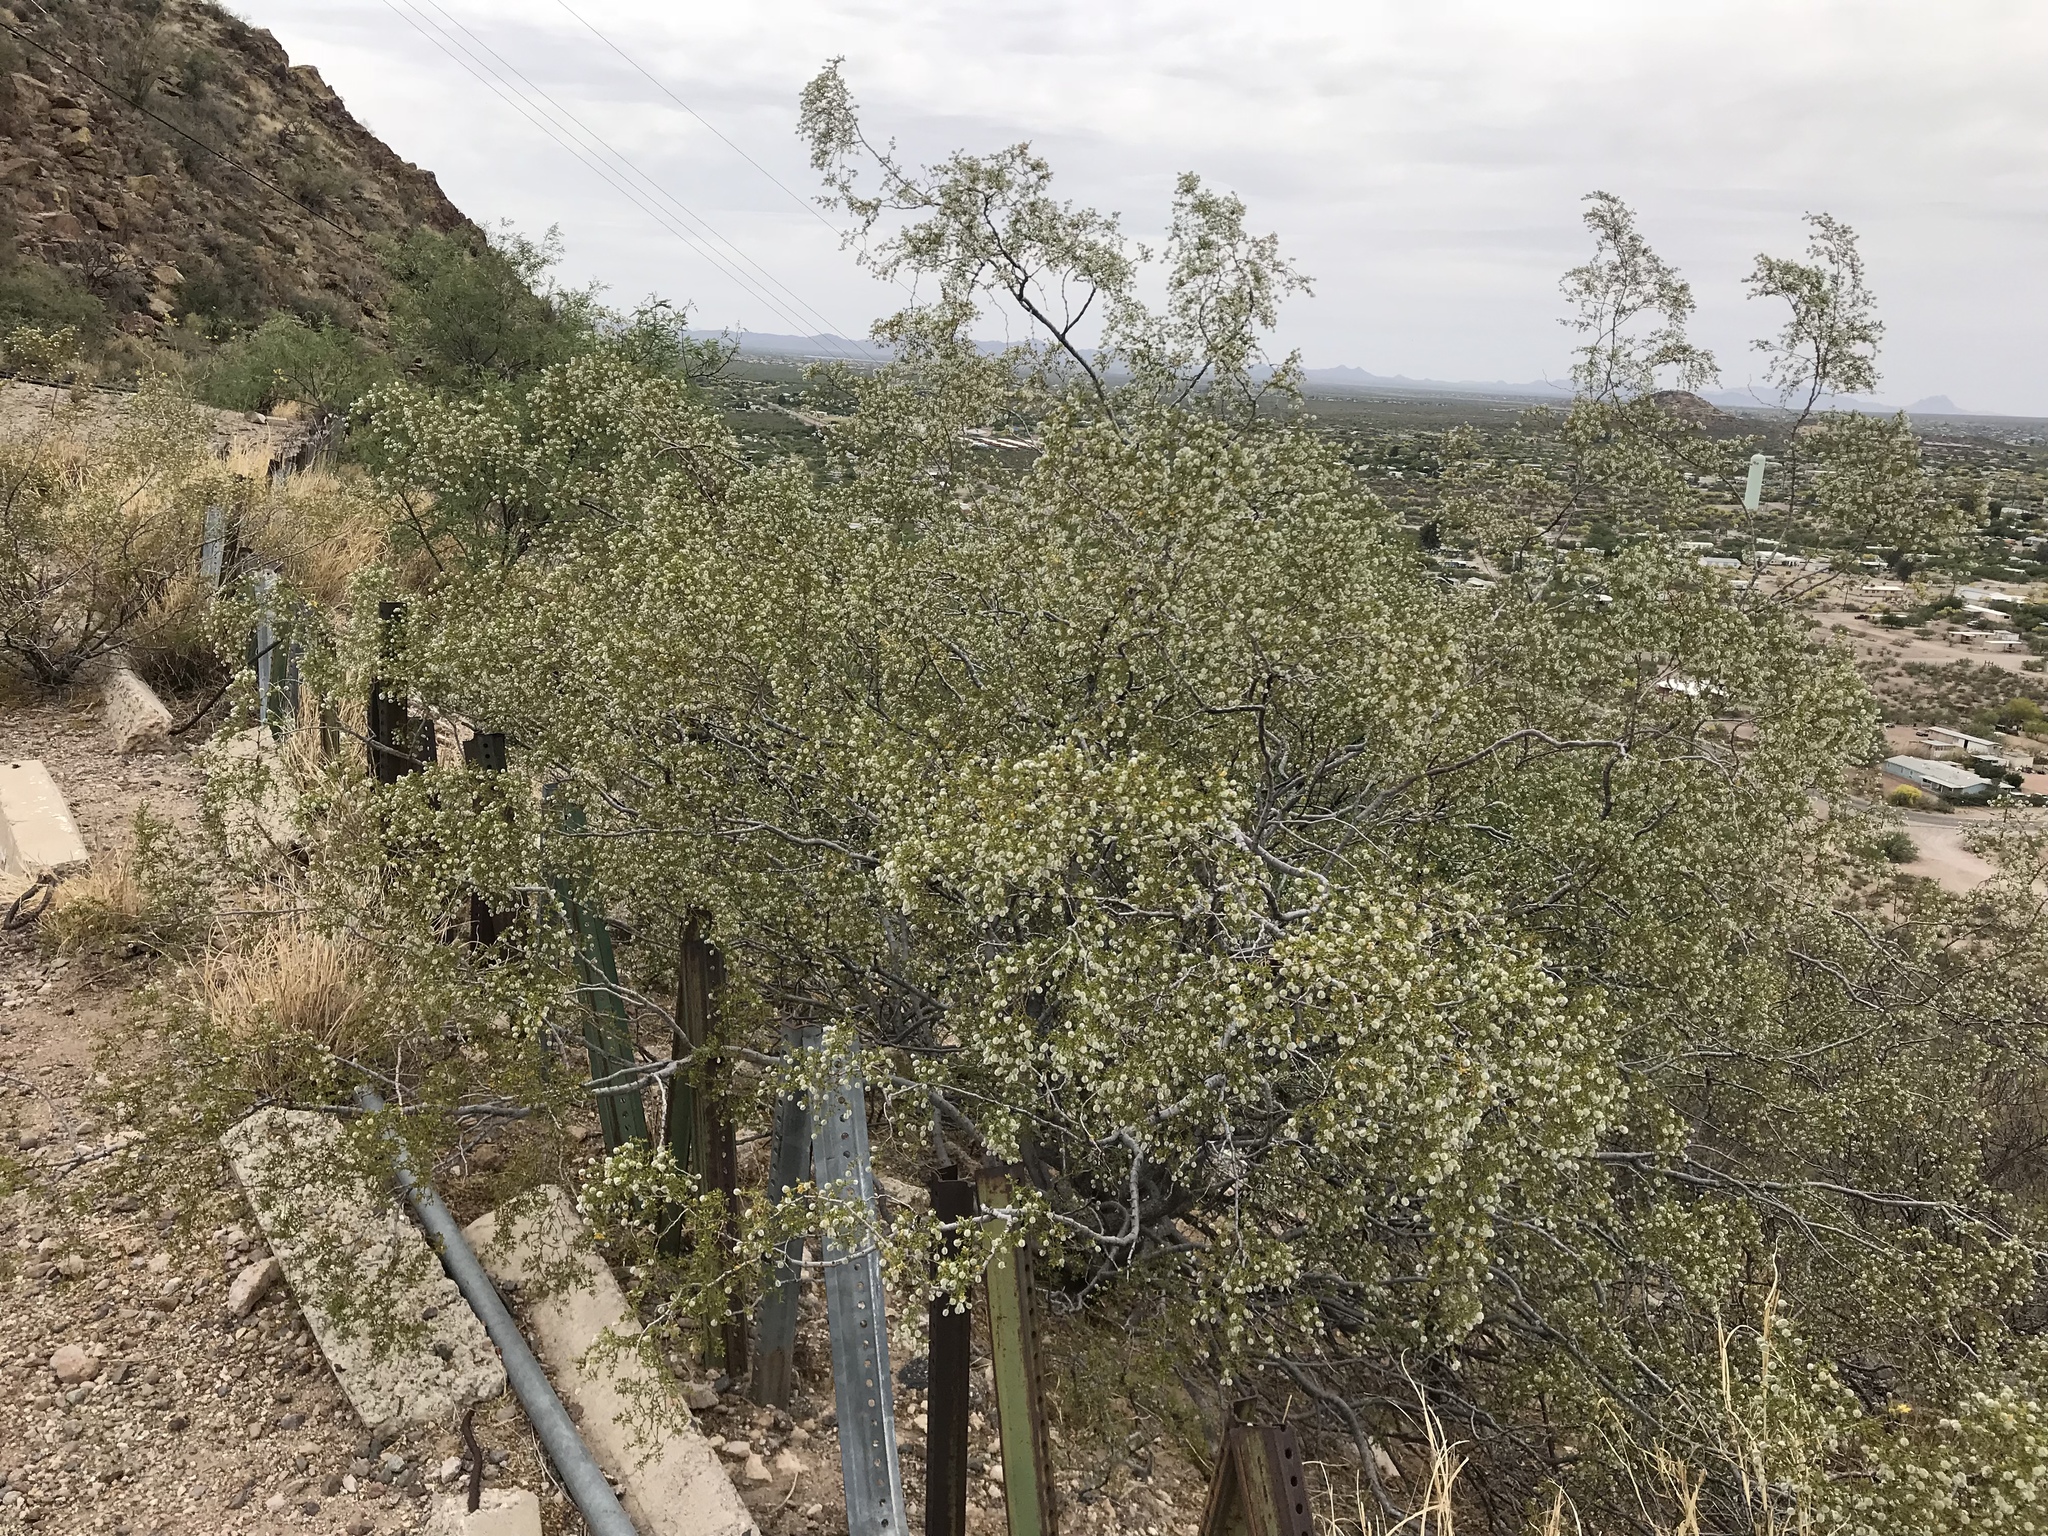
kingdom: Plantae
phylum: Tracheophyta
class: Magnoliopsida
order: Zygophyllales
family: Zygophyllaceae
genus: Larrea
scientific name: Larrea tridentata
